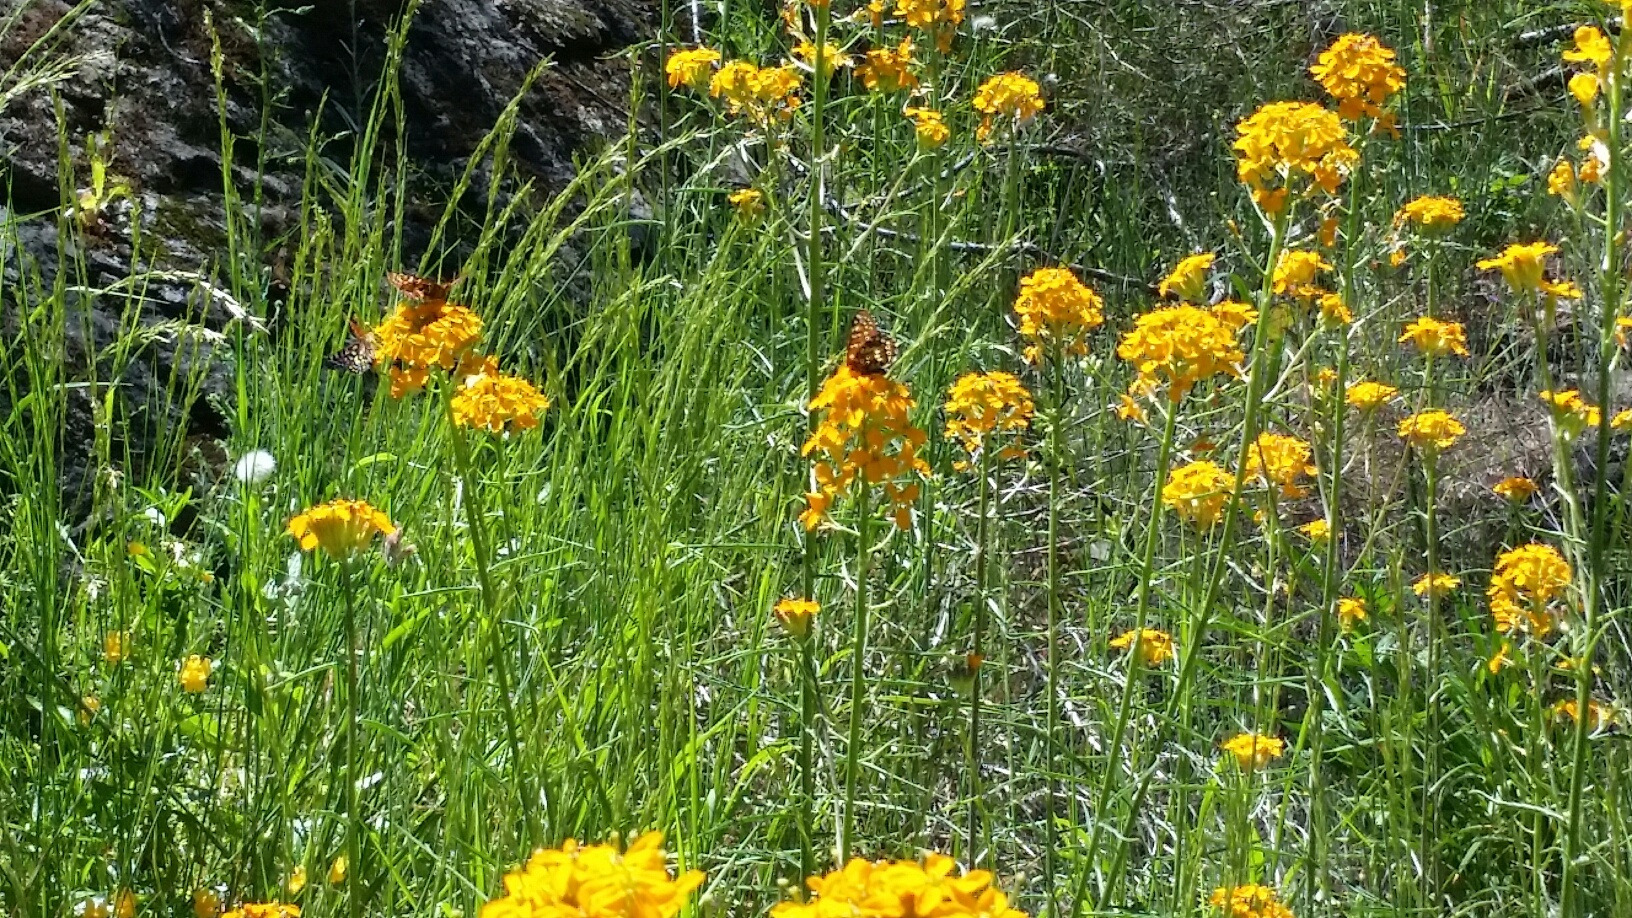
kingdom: Plantae
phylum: Tracheophyta
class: Magnoliopsida
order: Brassicales
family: Brassicaceae
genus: Erysimum
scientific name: Erysimum capitatum
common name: Western wallflower
